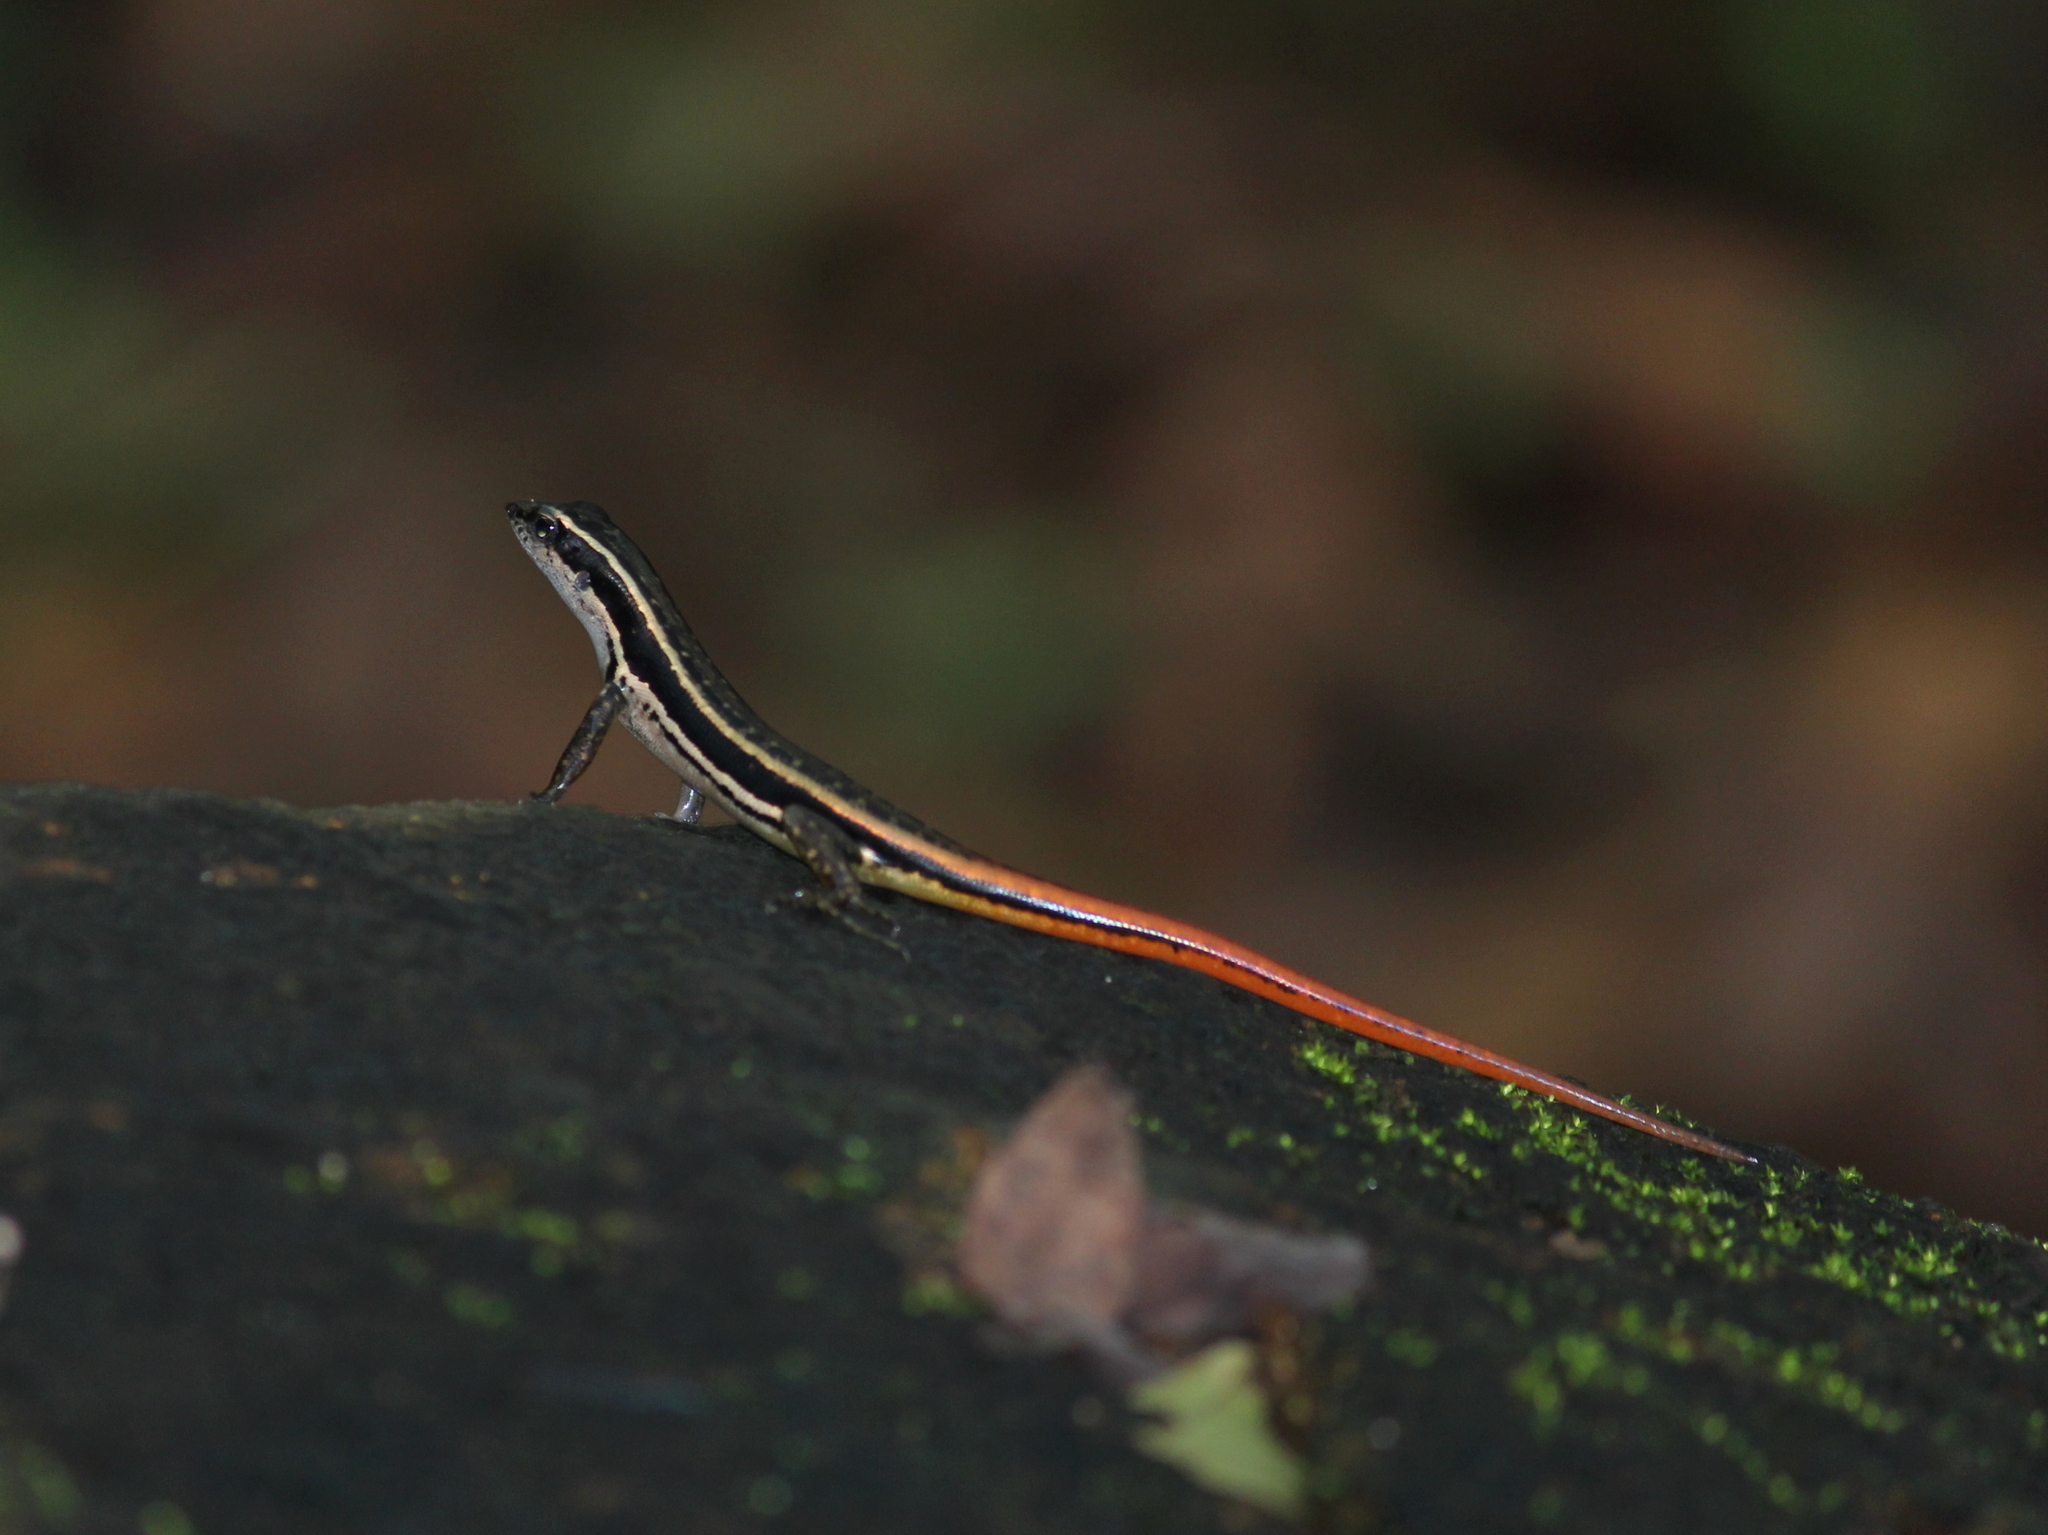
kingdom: Animalia
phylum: Chordata
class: Squamata
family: Scincidae
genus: Sphenomorphus
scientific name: Sphenomorphus dussumieri
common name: Dussumier's forest skink
